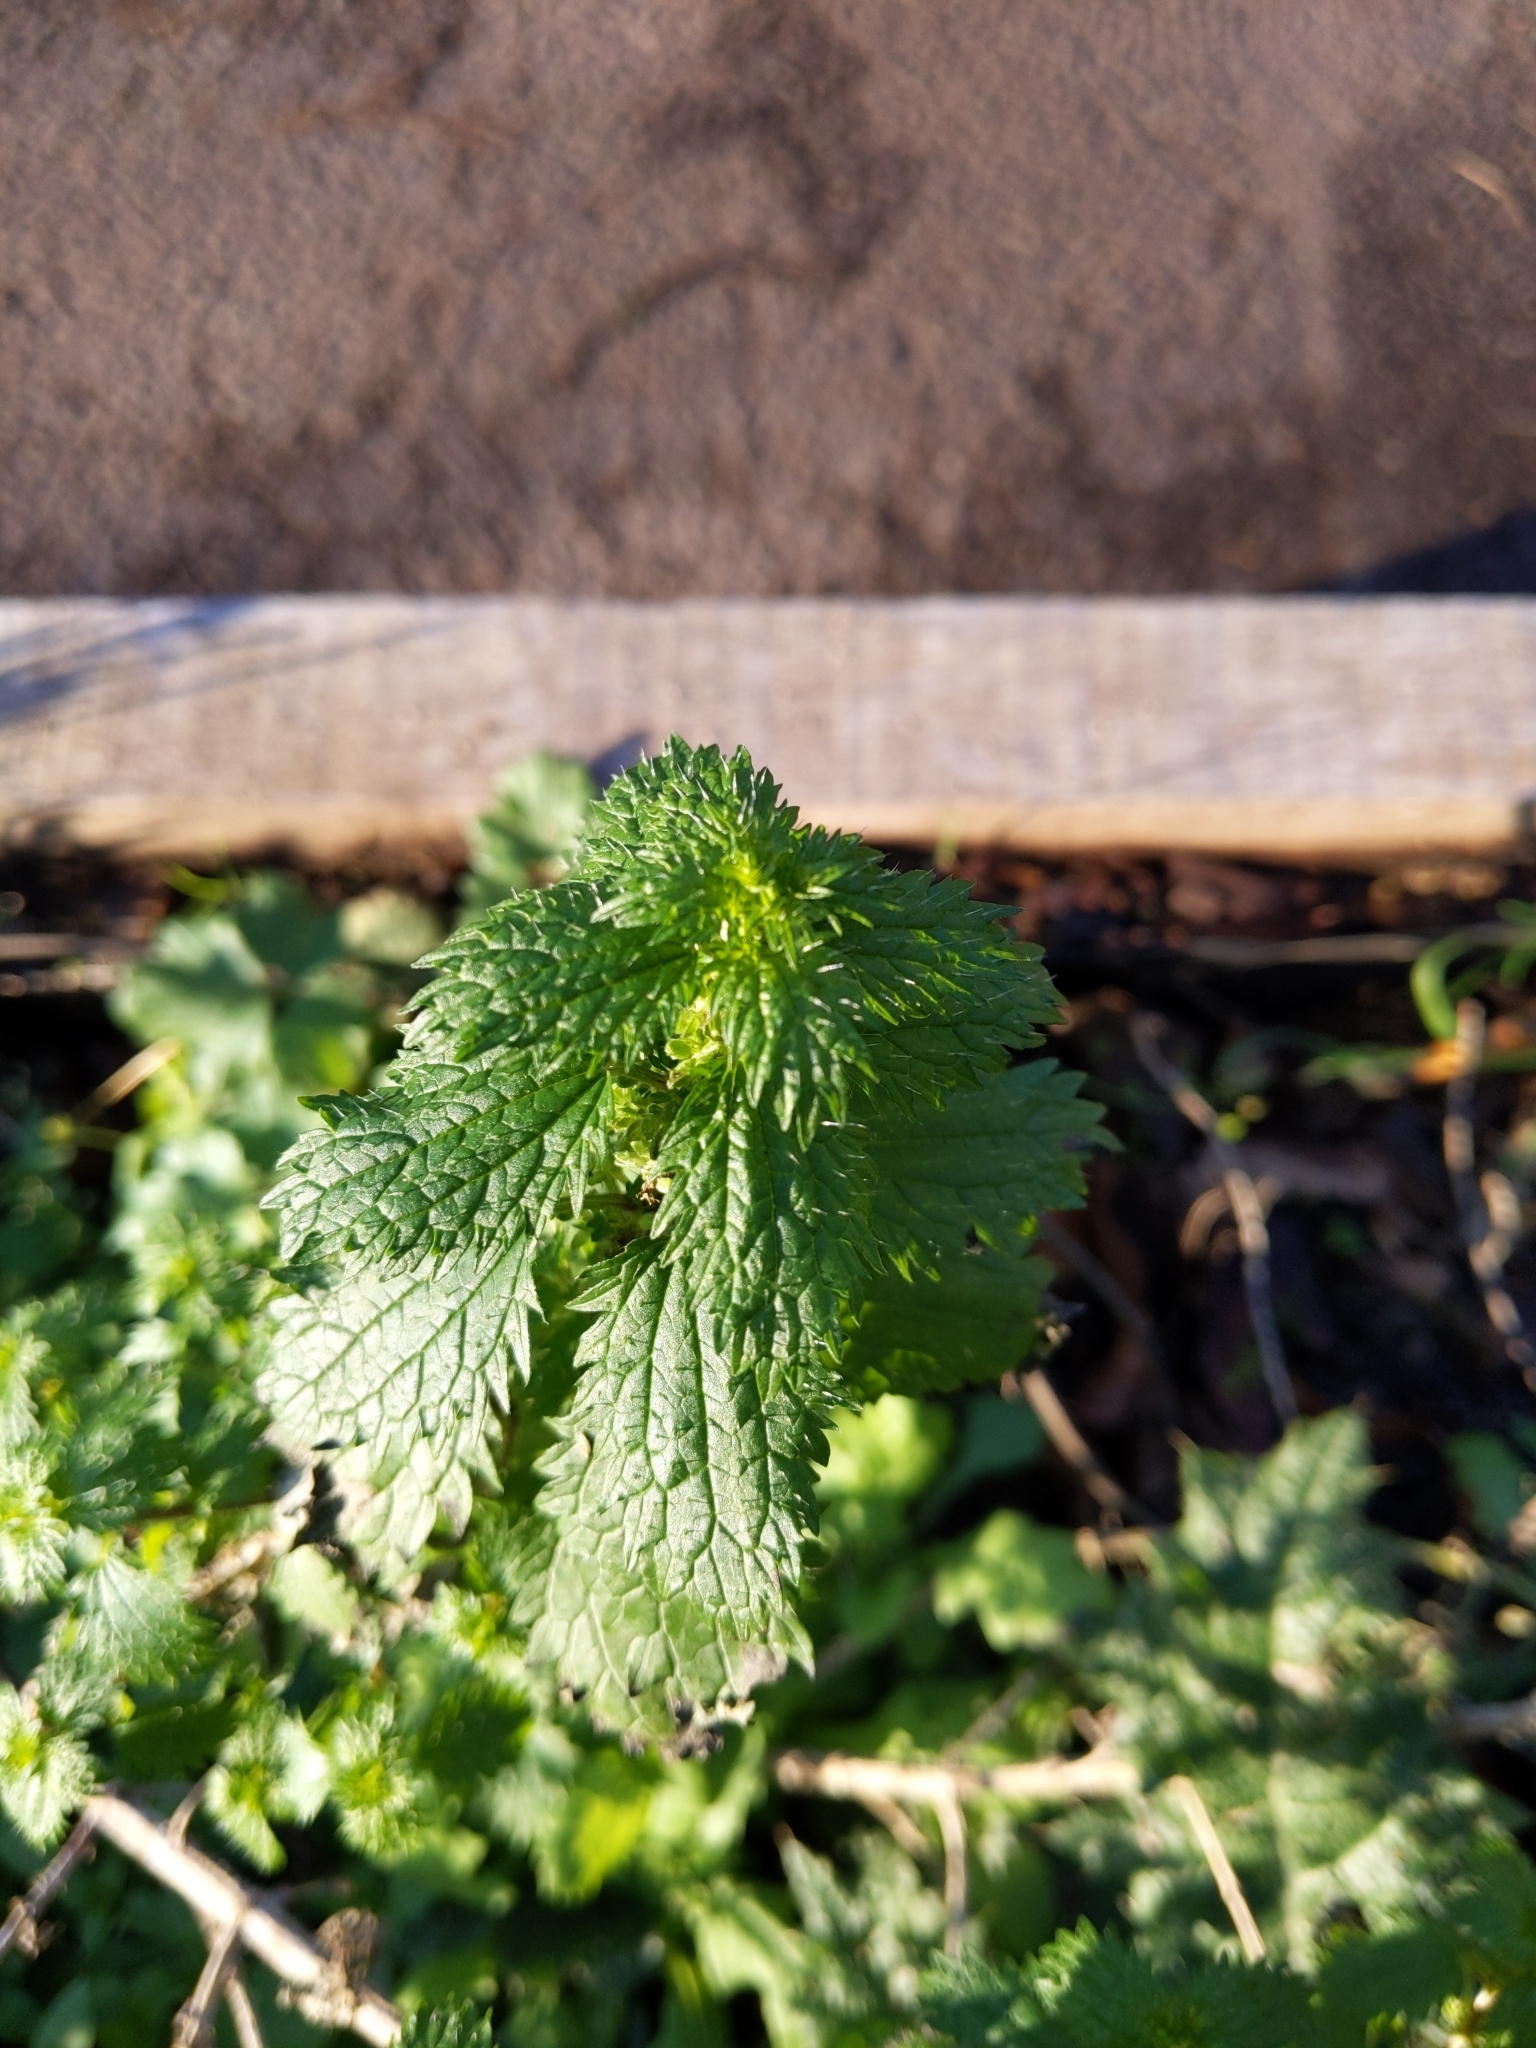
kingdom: Plantae
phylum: Tracheophyta
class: Magnoliopsida
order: Rosales
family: Urticaceae
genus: Urtica
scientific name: Urtica urens
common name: Dwarf nettle
